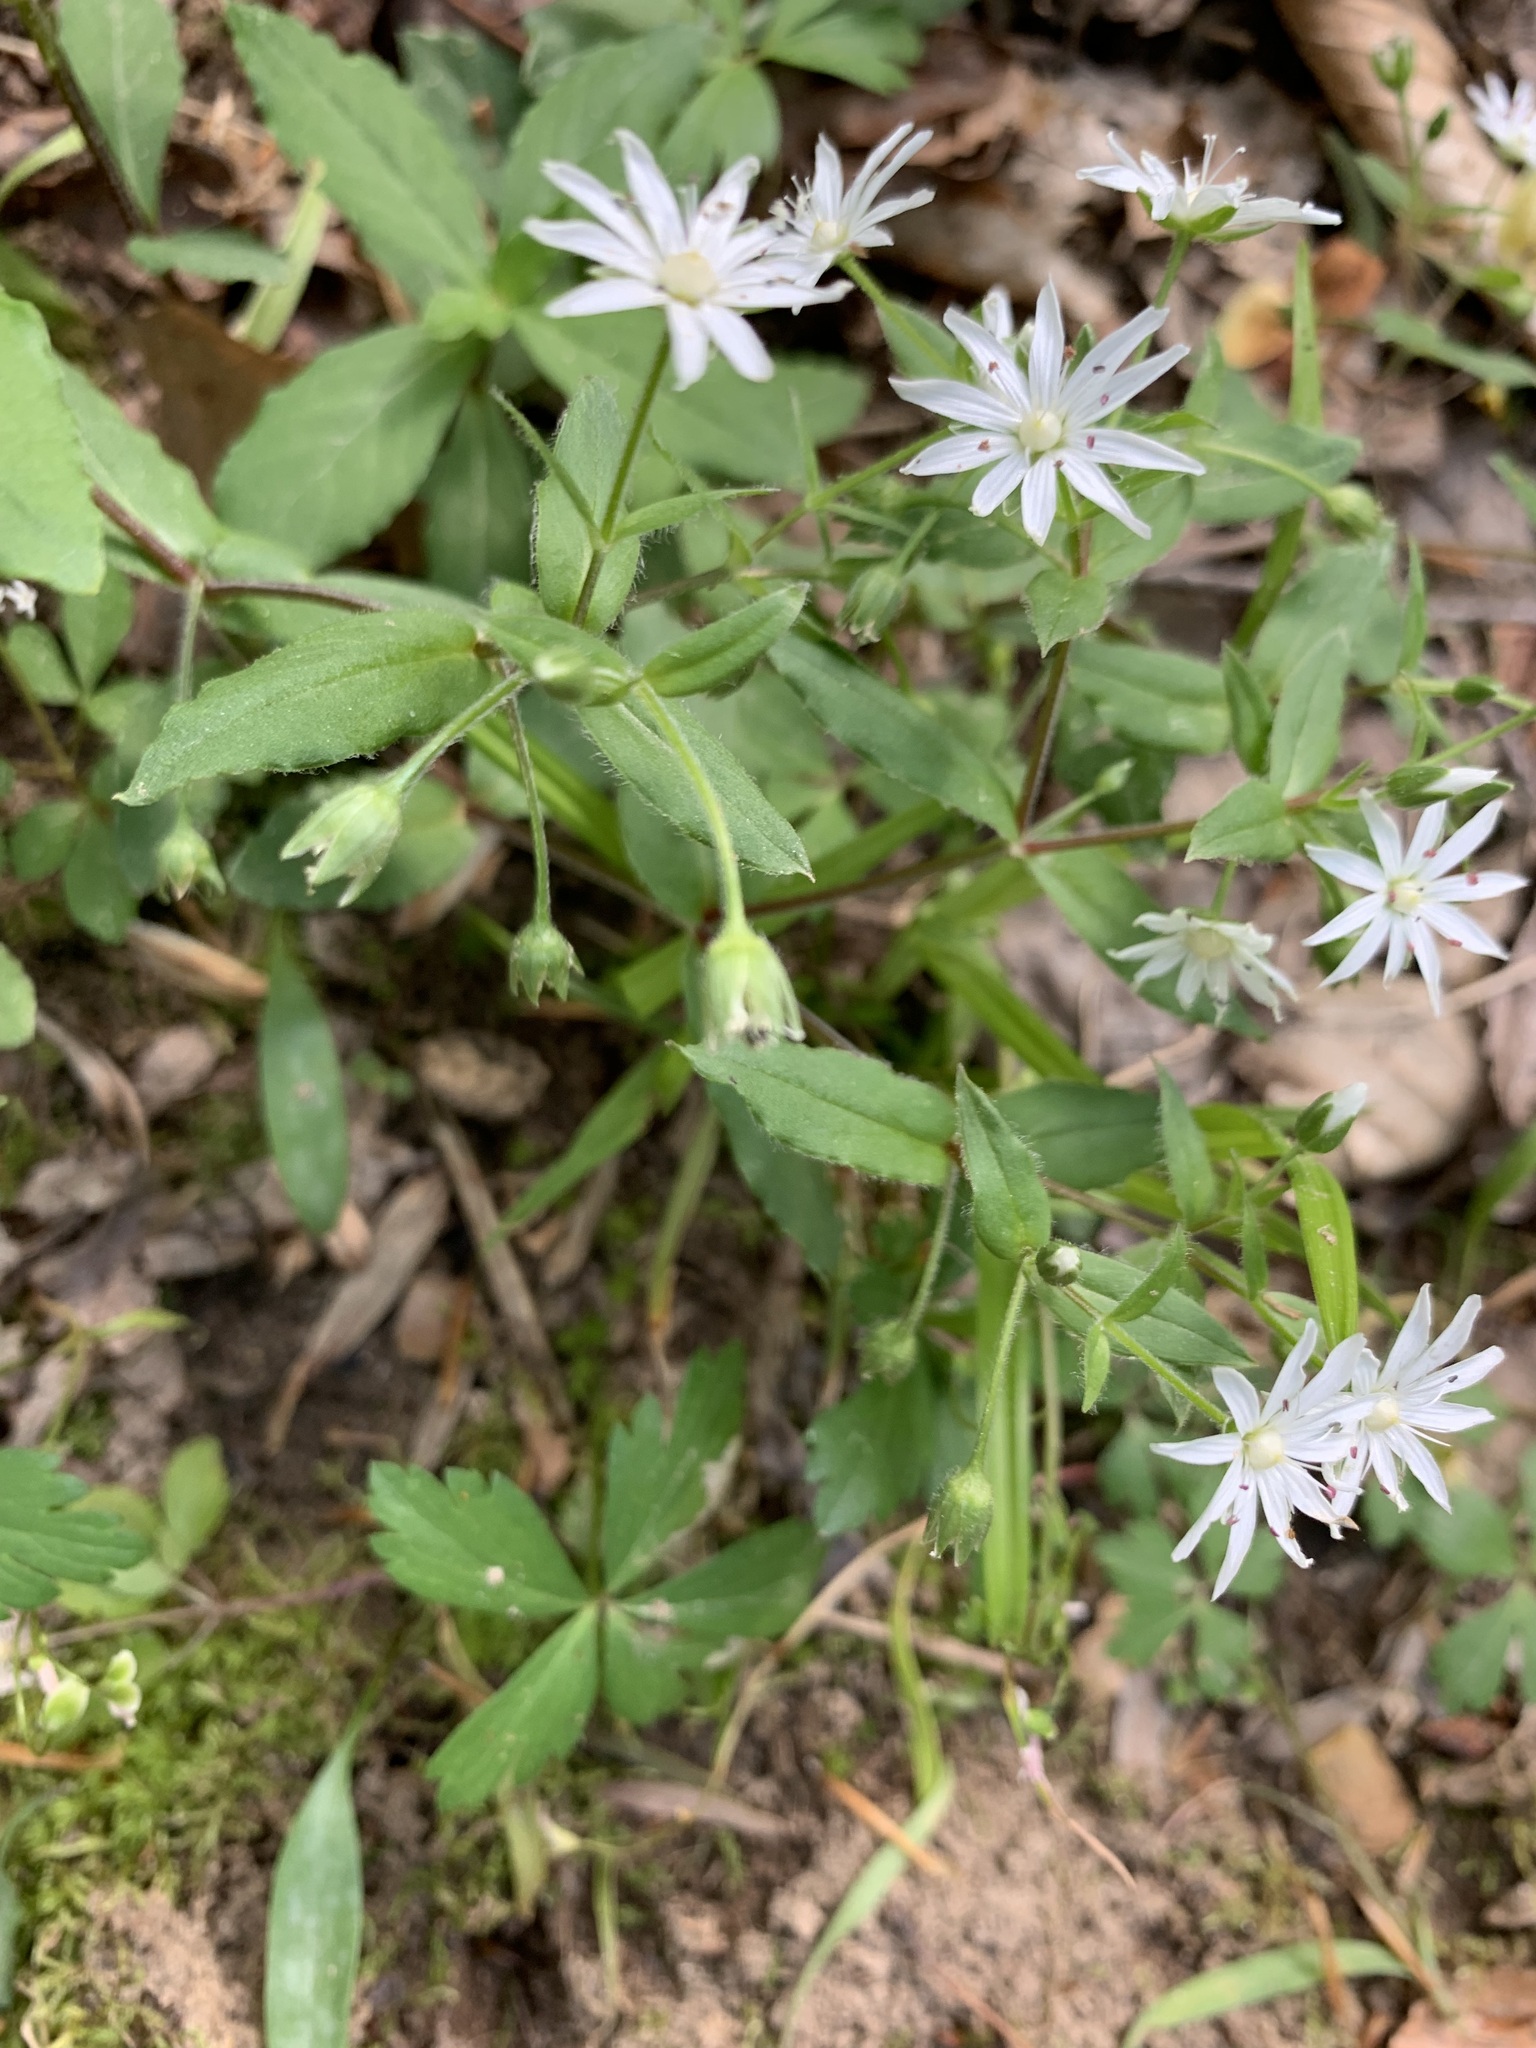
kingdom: Plantae
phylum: Tracheophyta
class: Magnoliopsida
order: Caryophyllales
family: Caryophyllaceae
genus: Stellaria
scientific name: Stellaria pubera
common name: Star chickweed
